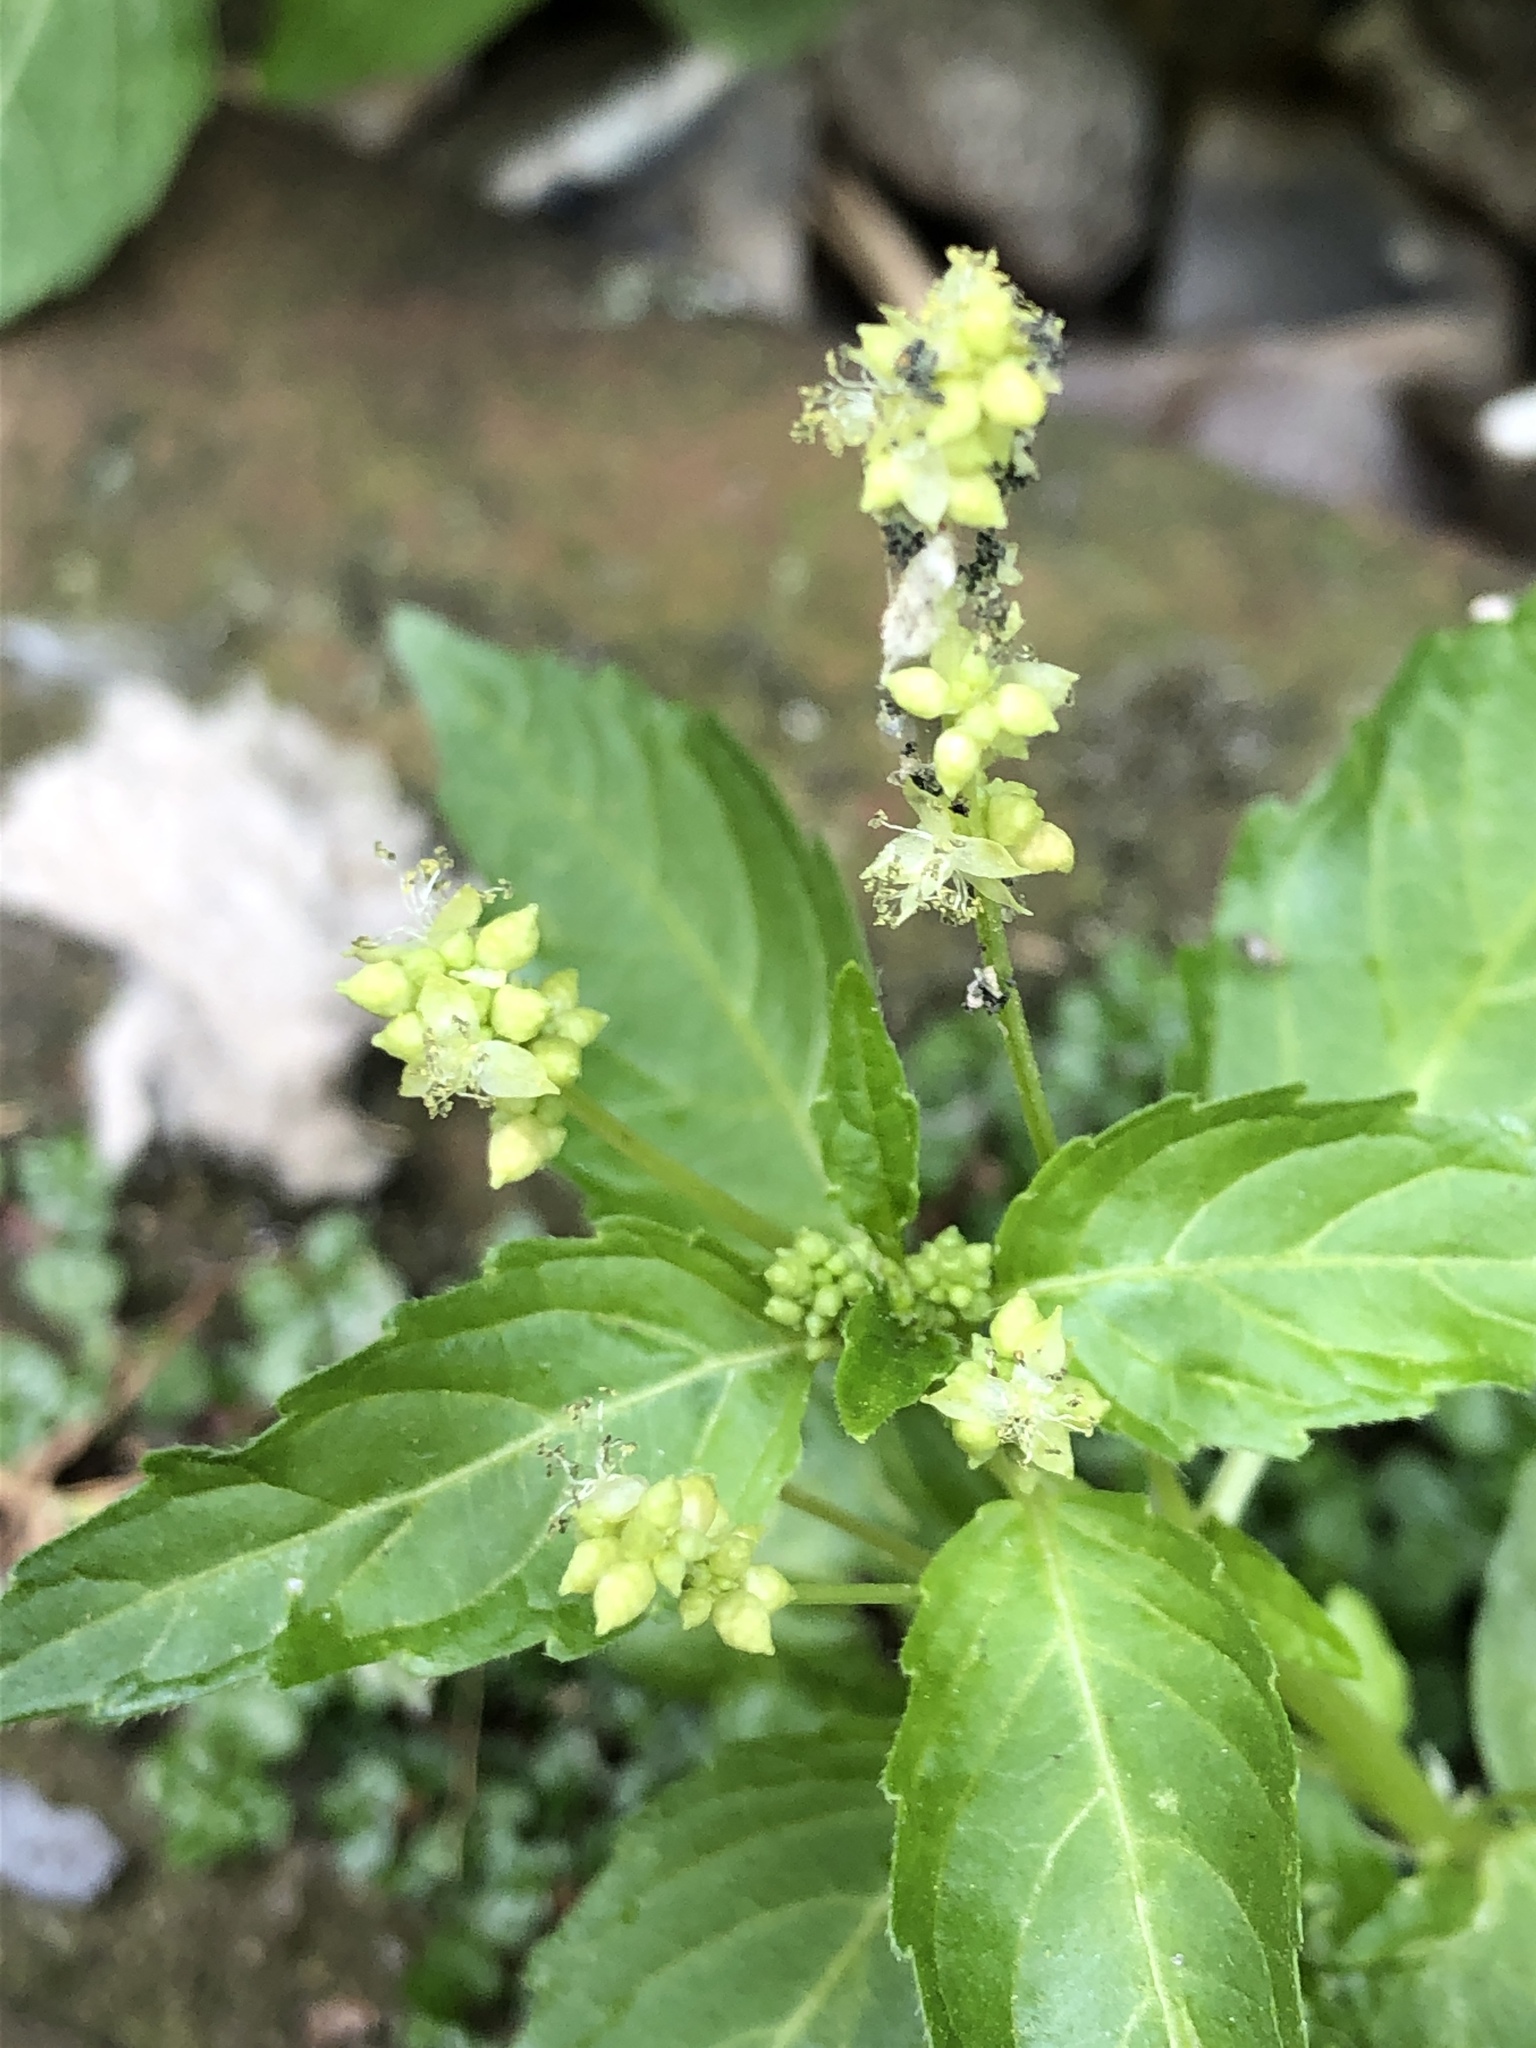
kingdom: Plantae
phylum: Tracheophyta
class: Magnoliopsida
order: Malpighiales
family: Euphorbiaceae
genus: Mercurialis
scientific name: Mercurialis annua
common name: Annual mercury
